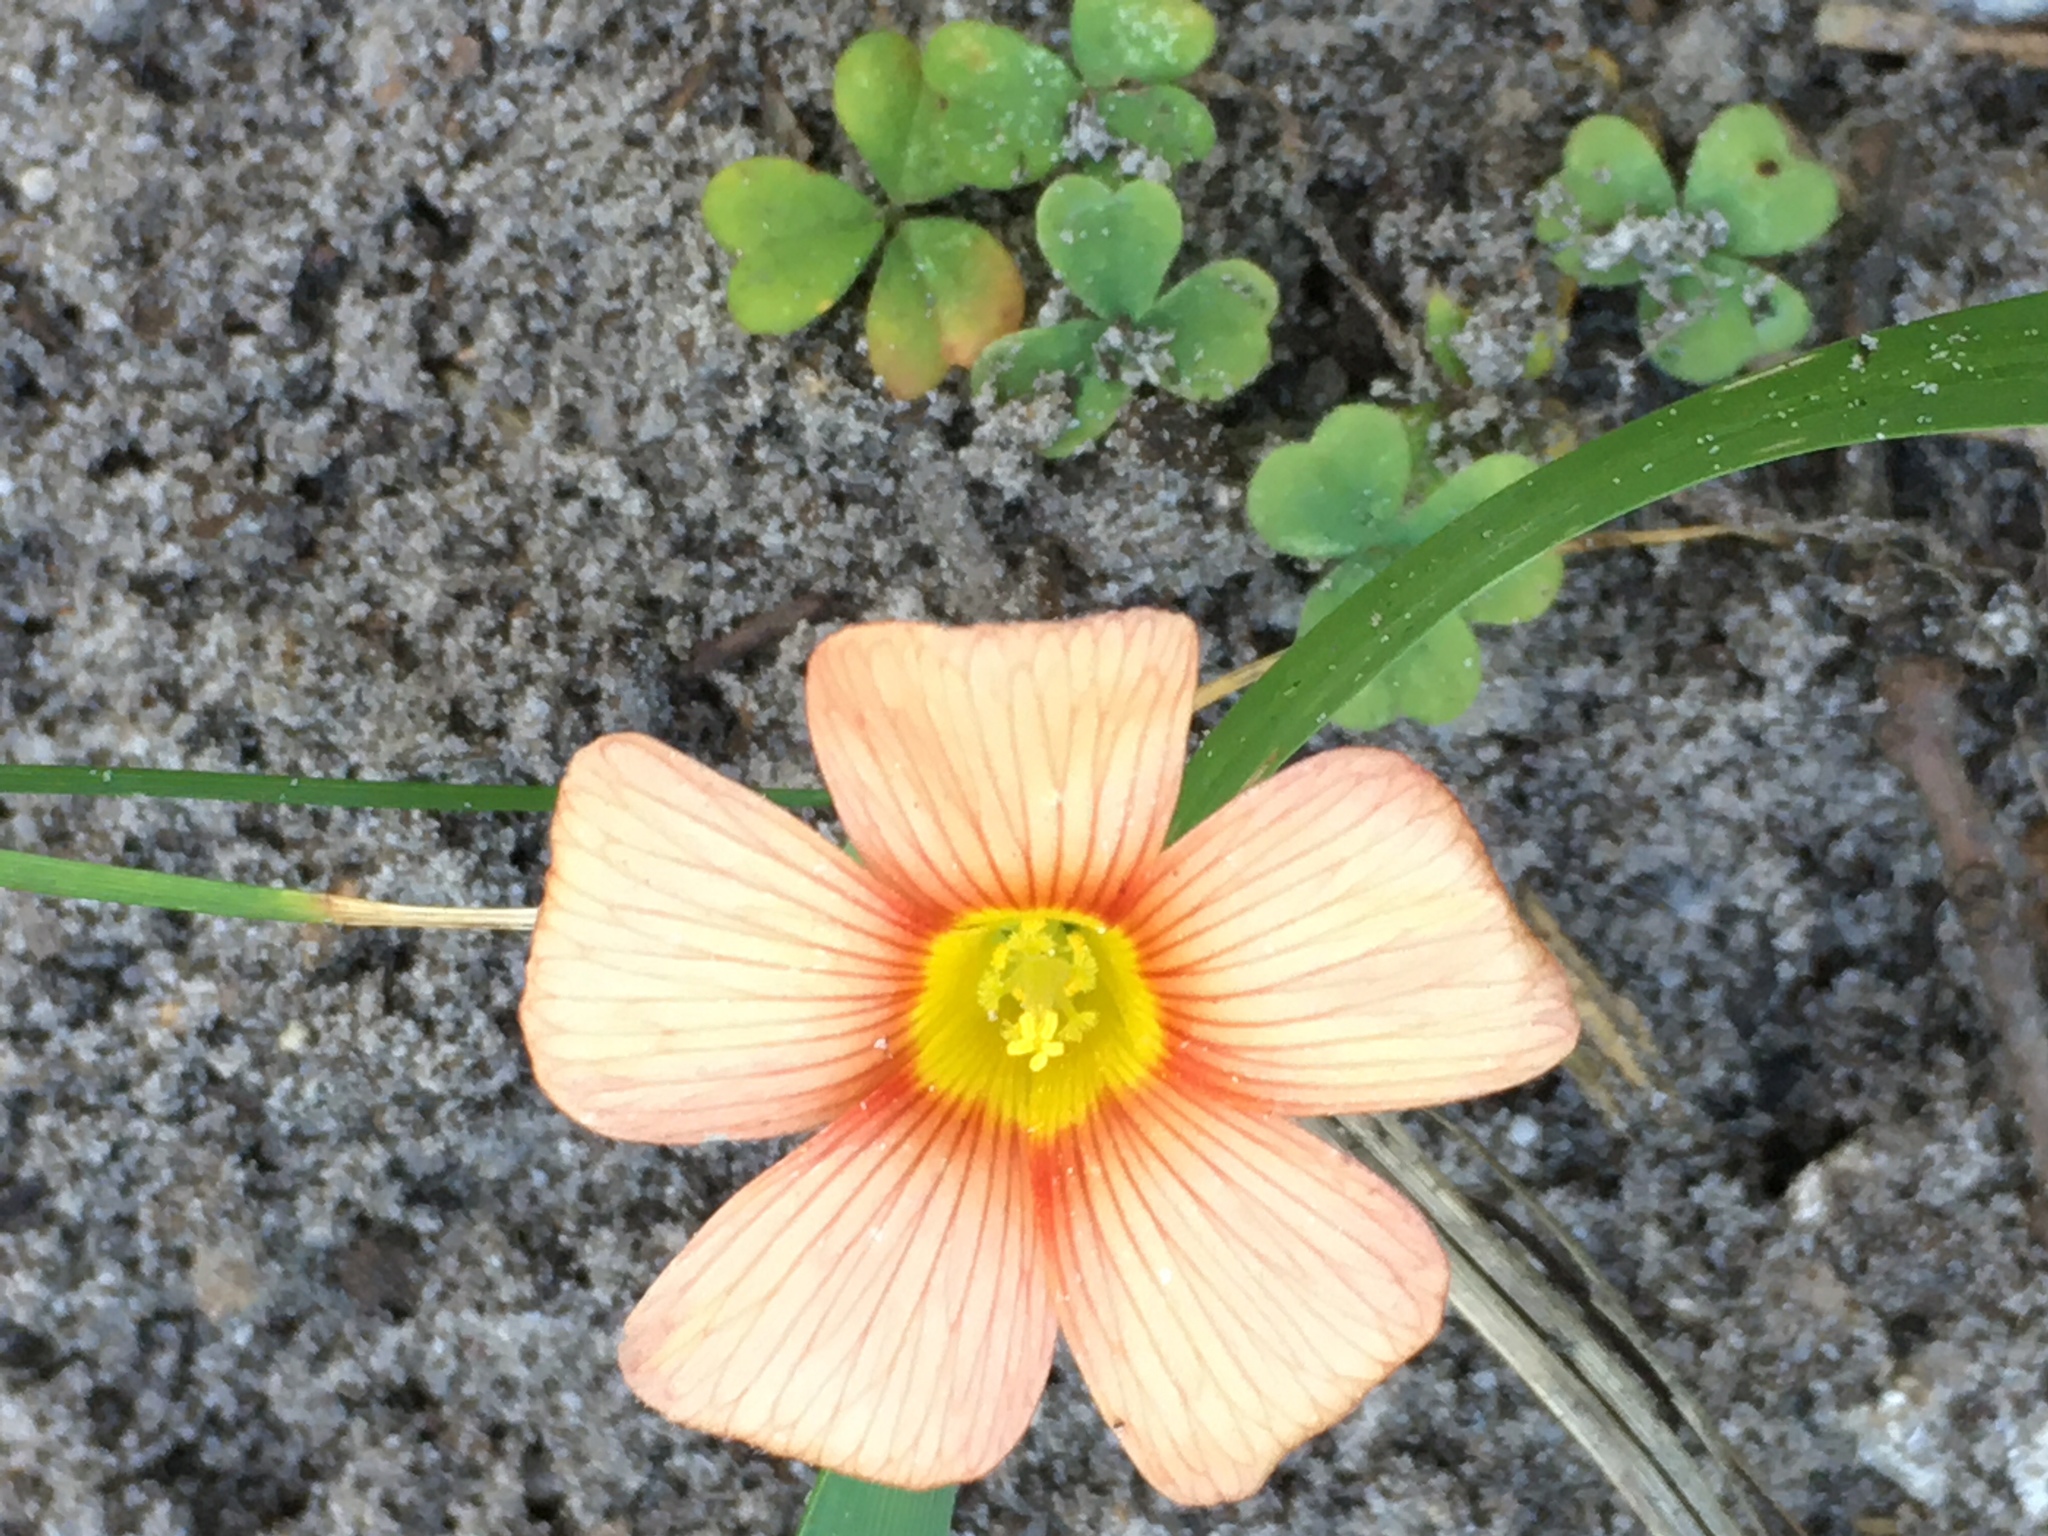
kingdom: Plantae
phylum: Tracheophyta
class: Magnoliopsida
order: Oxalidales
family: Oxalidaceae
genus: Oxalis
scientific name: Oxalis obtusa
